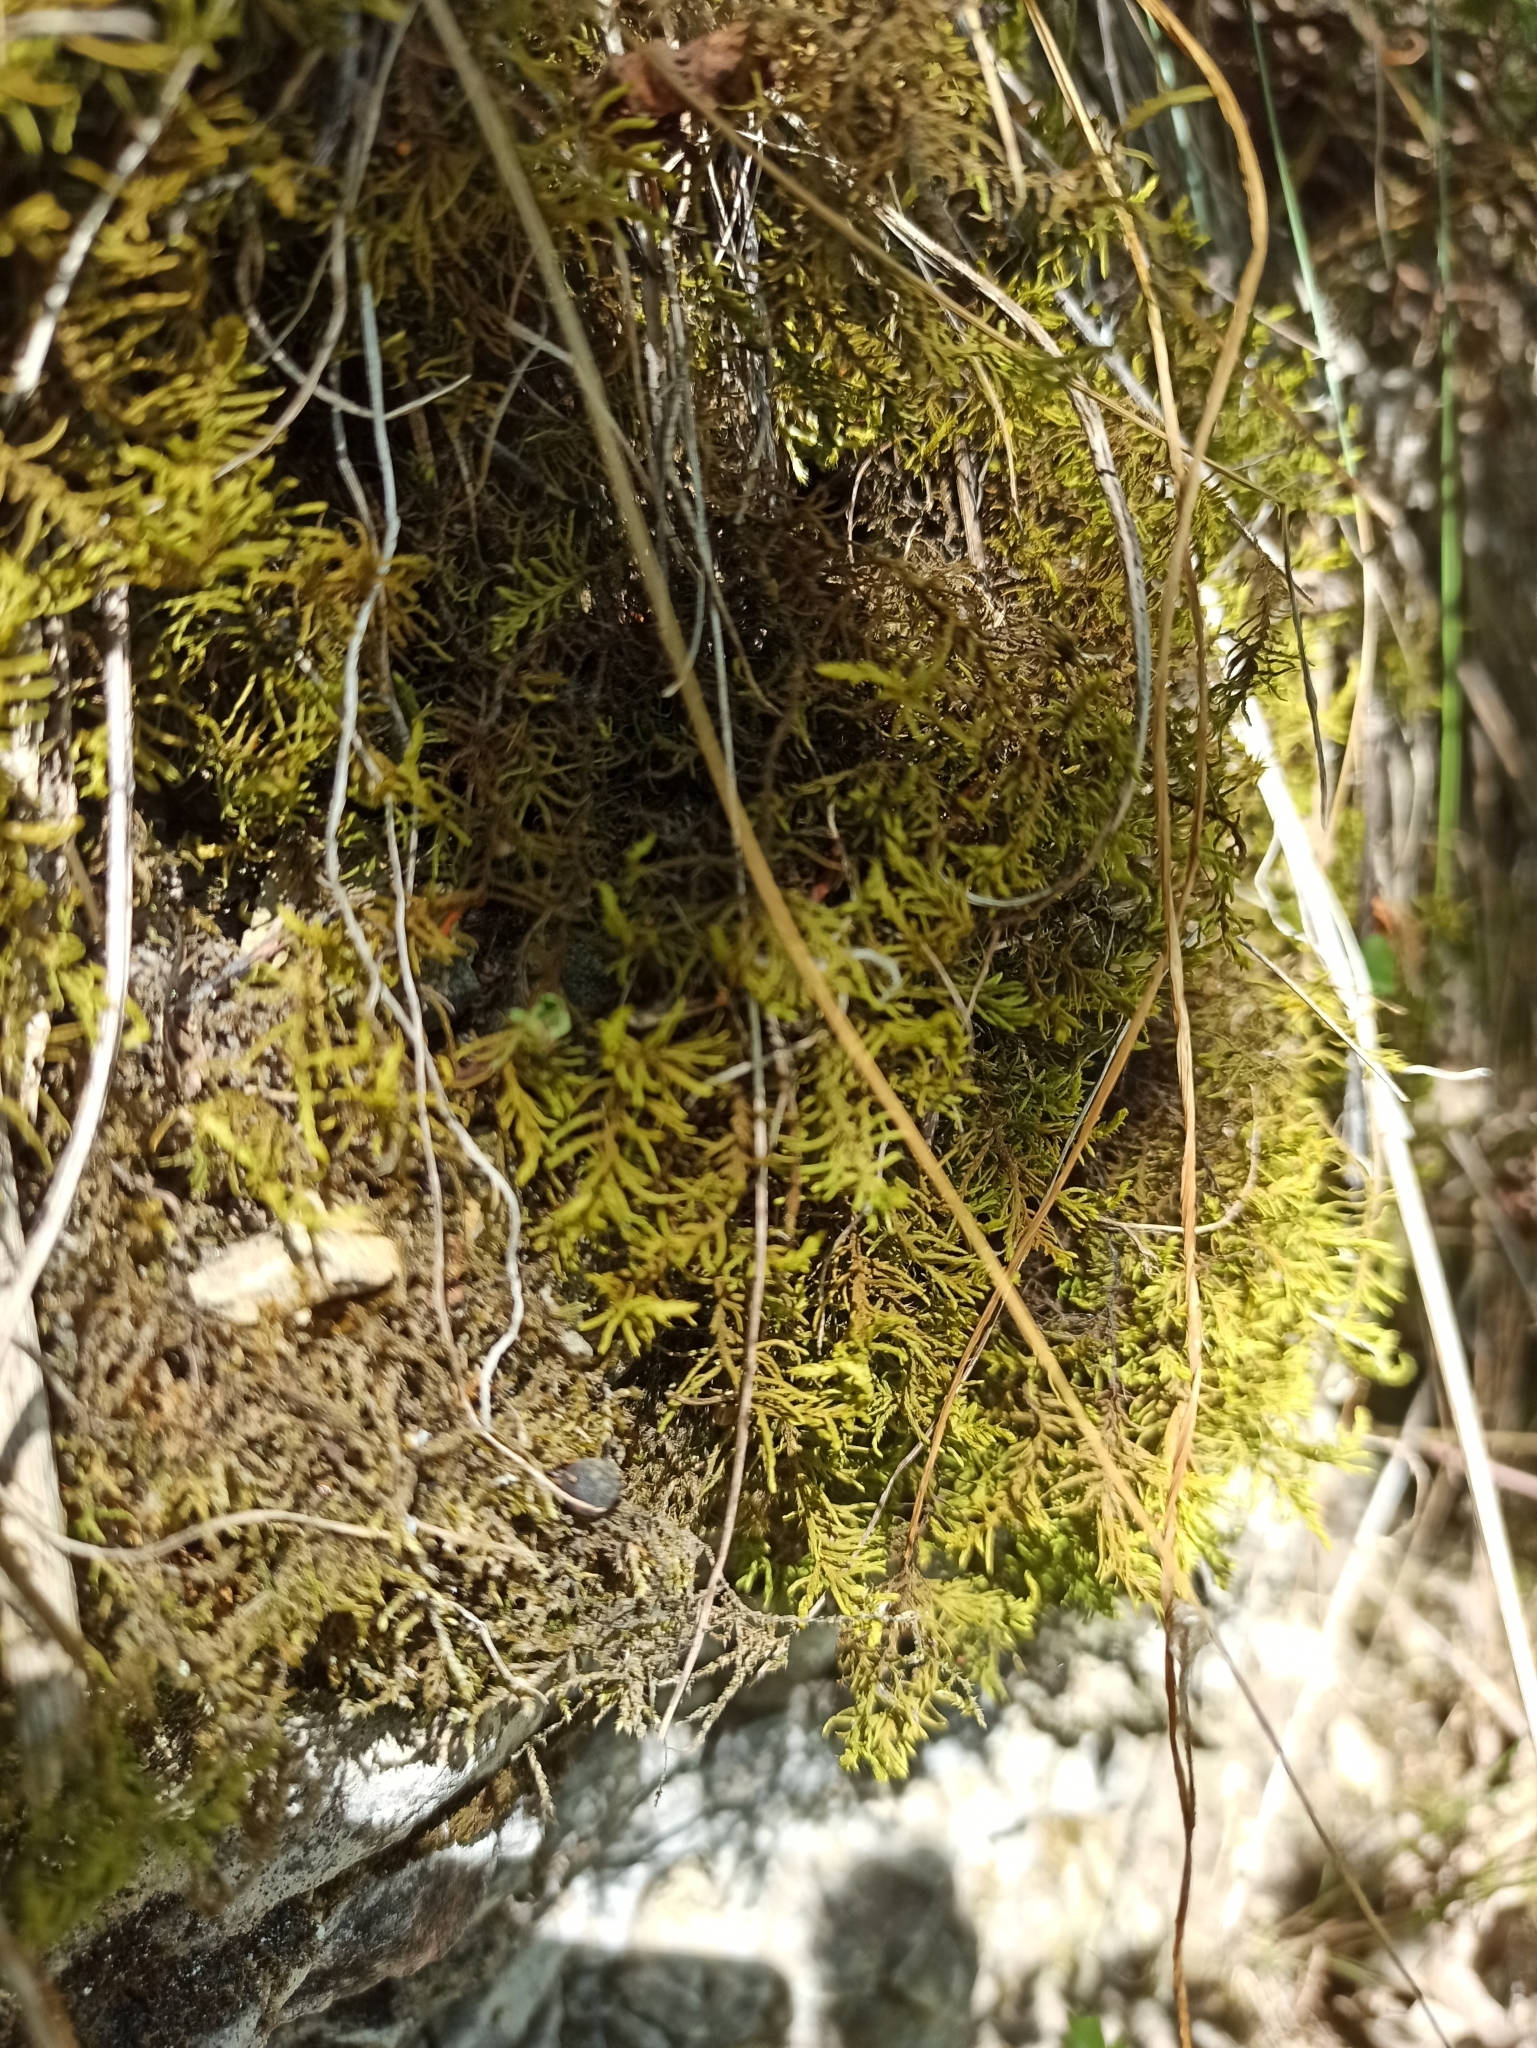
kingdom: Plantae
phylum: Bryophyta
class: Bryopsida
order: Hypnales
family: Thuidiaceae
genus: Abietinella
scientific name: Abietinella abietina
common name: Wiry fern moss
